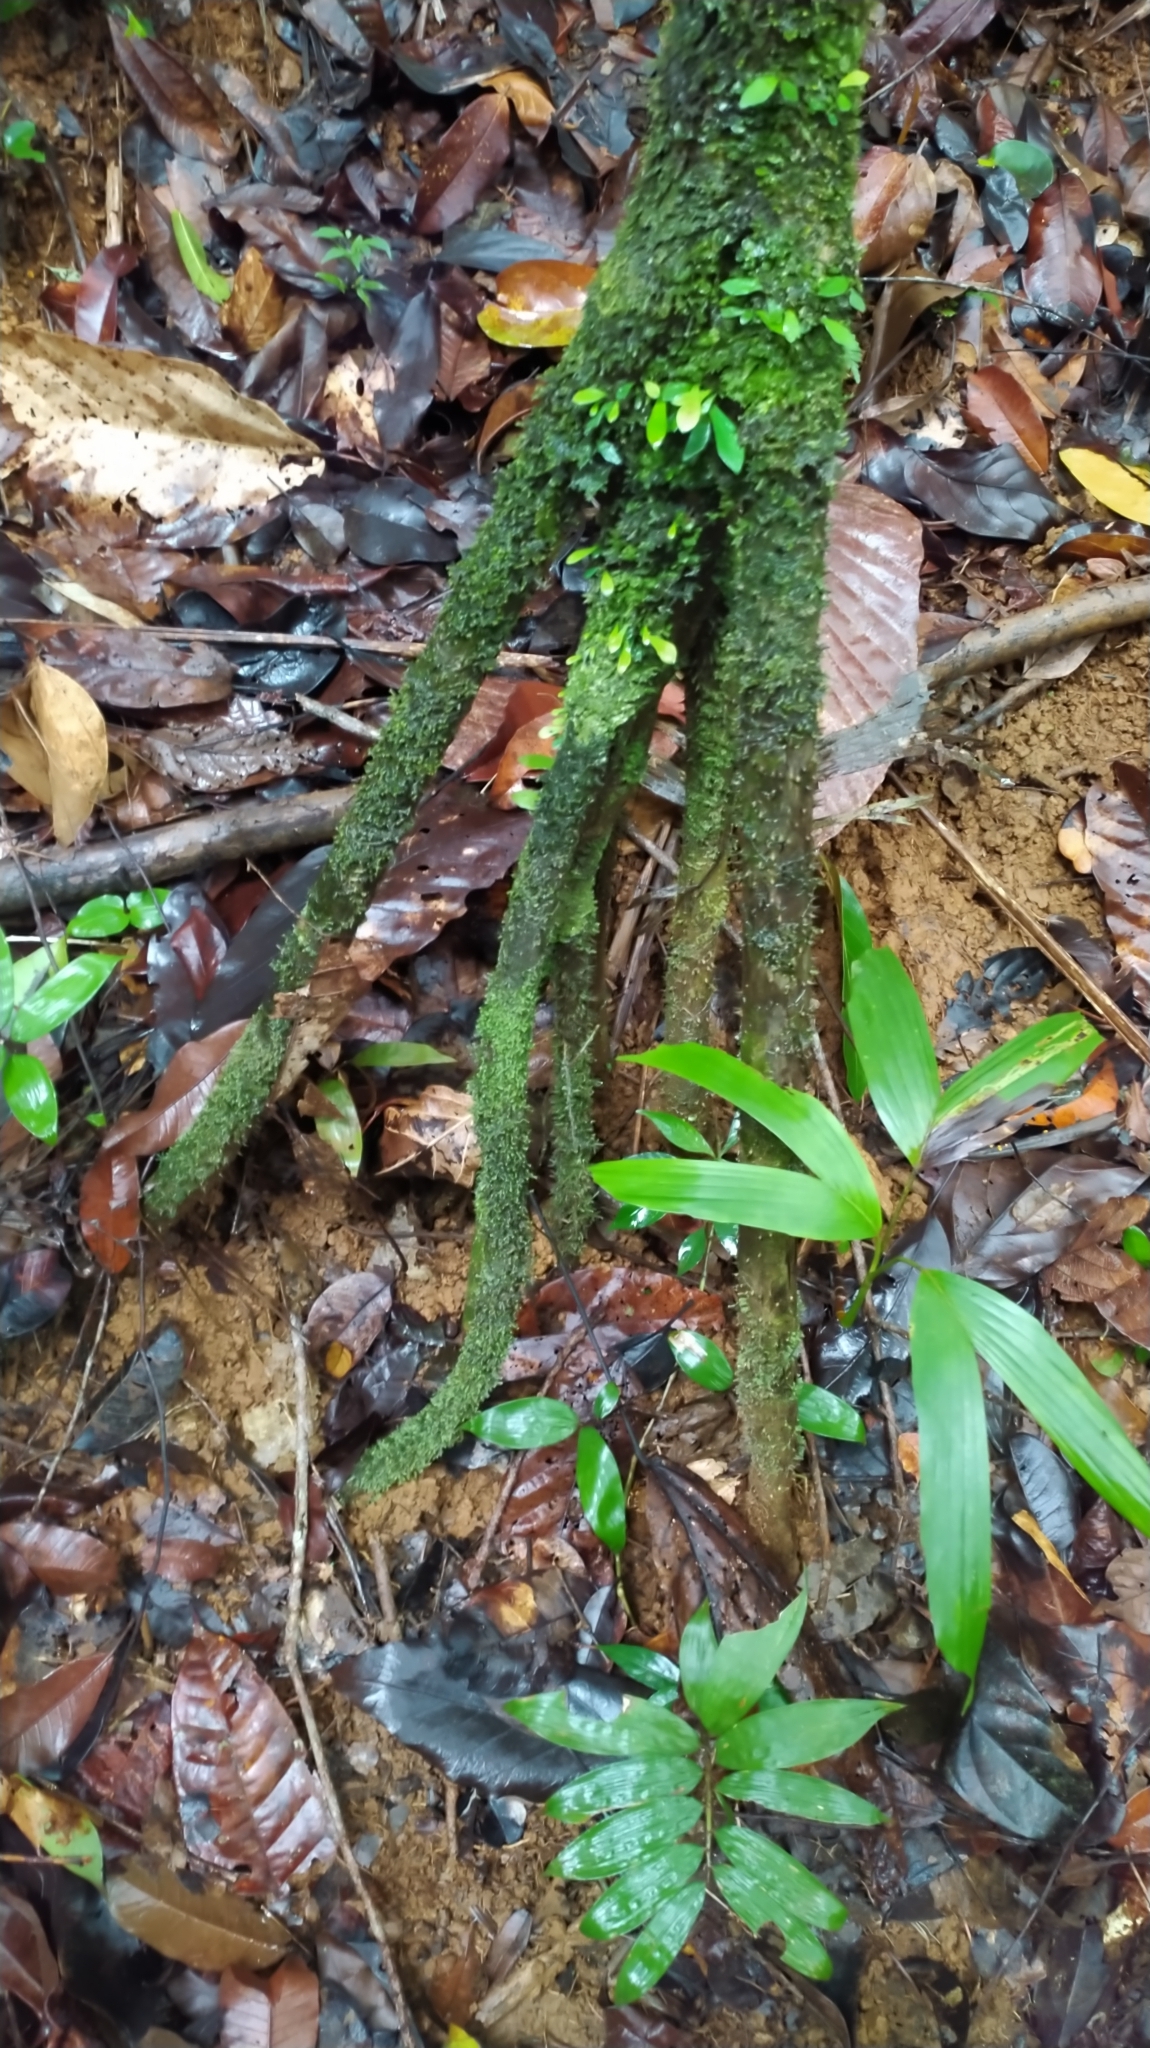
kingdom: Plantae
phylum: Tracheophyta
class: Liliopsida
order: Arecales
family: Arecaceae
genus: Socratea
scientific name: Socratea exorrhiza
